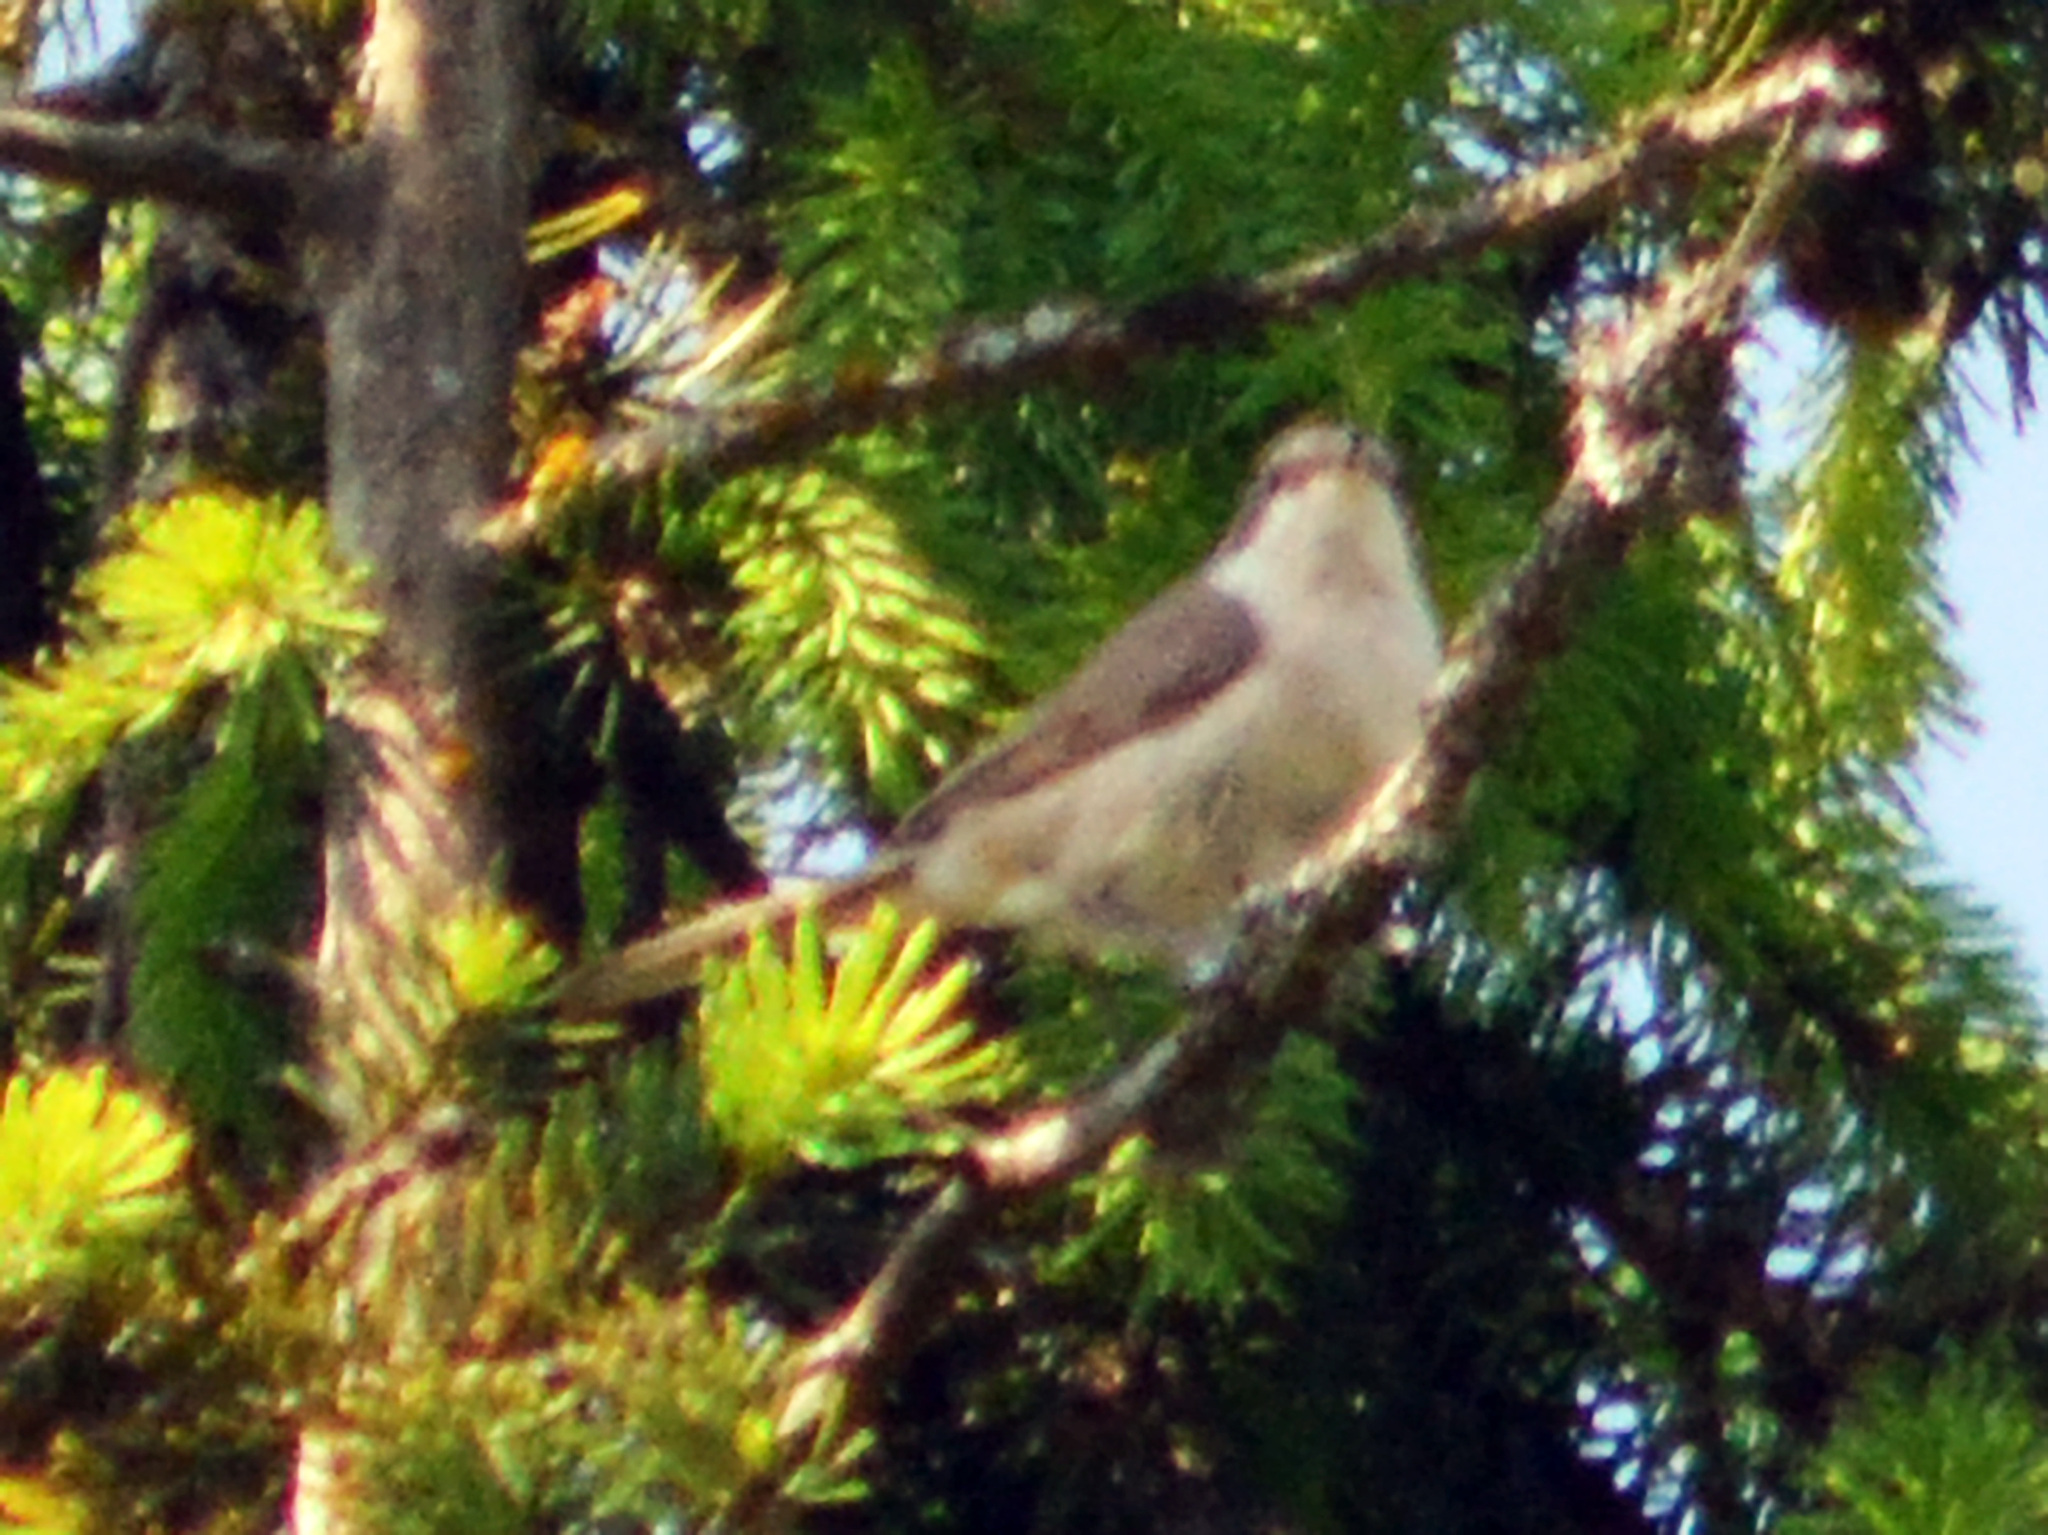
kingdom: Animalia
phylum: Chordata
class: Aves
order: Passeriformes
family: Sylviidae
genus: Sylvia
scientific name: Sylvia curruca
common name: Lesser whitethroat
